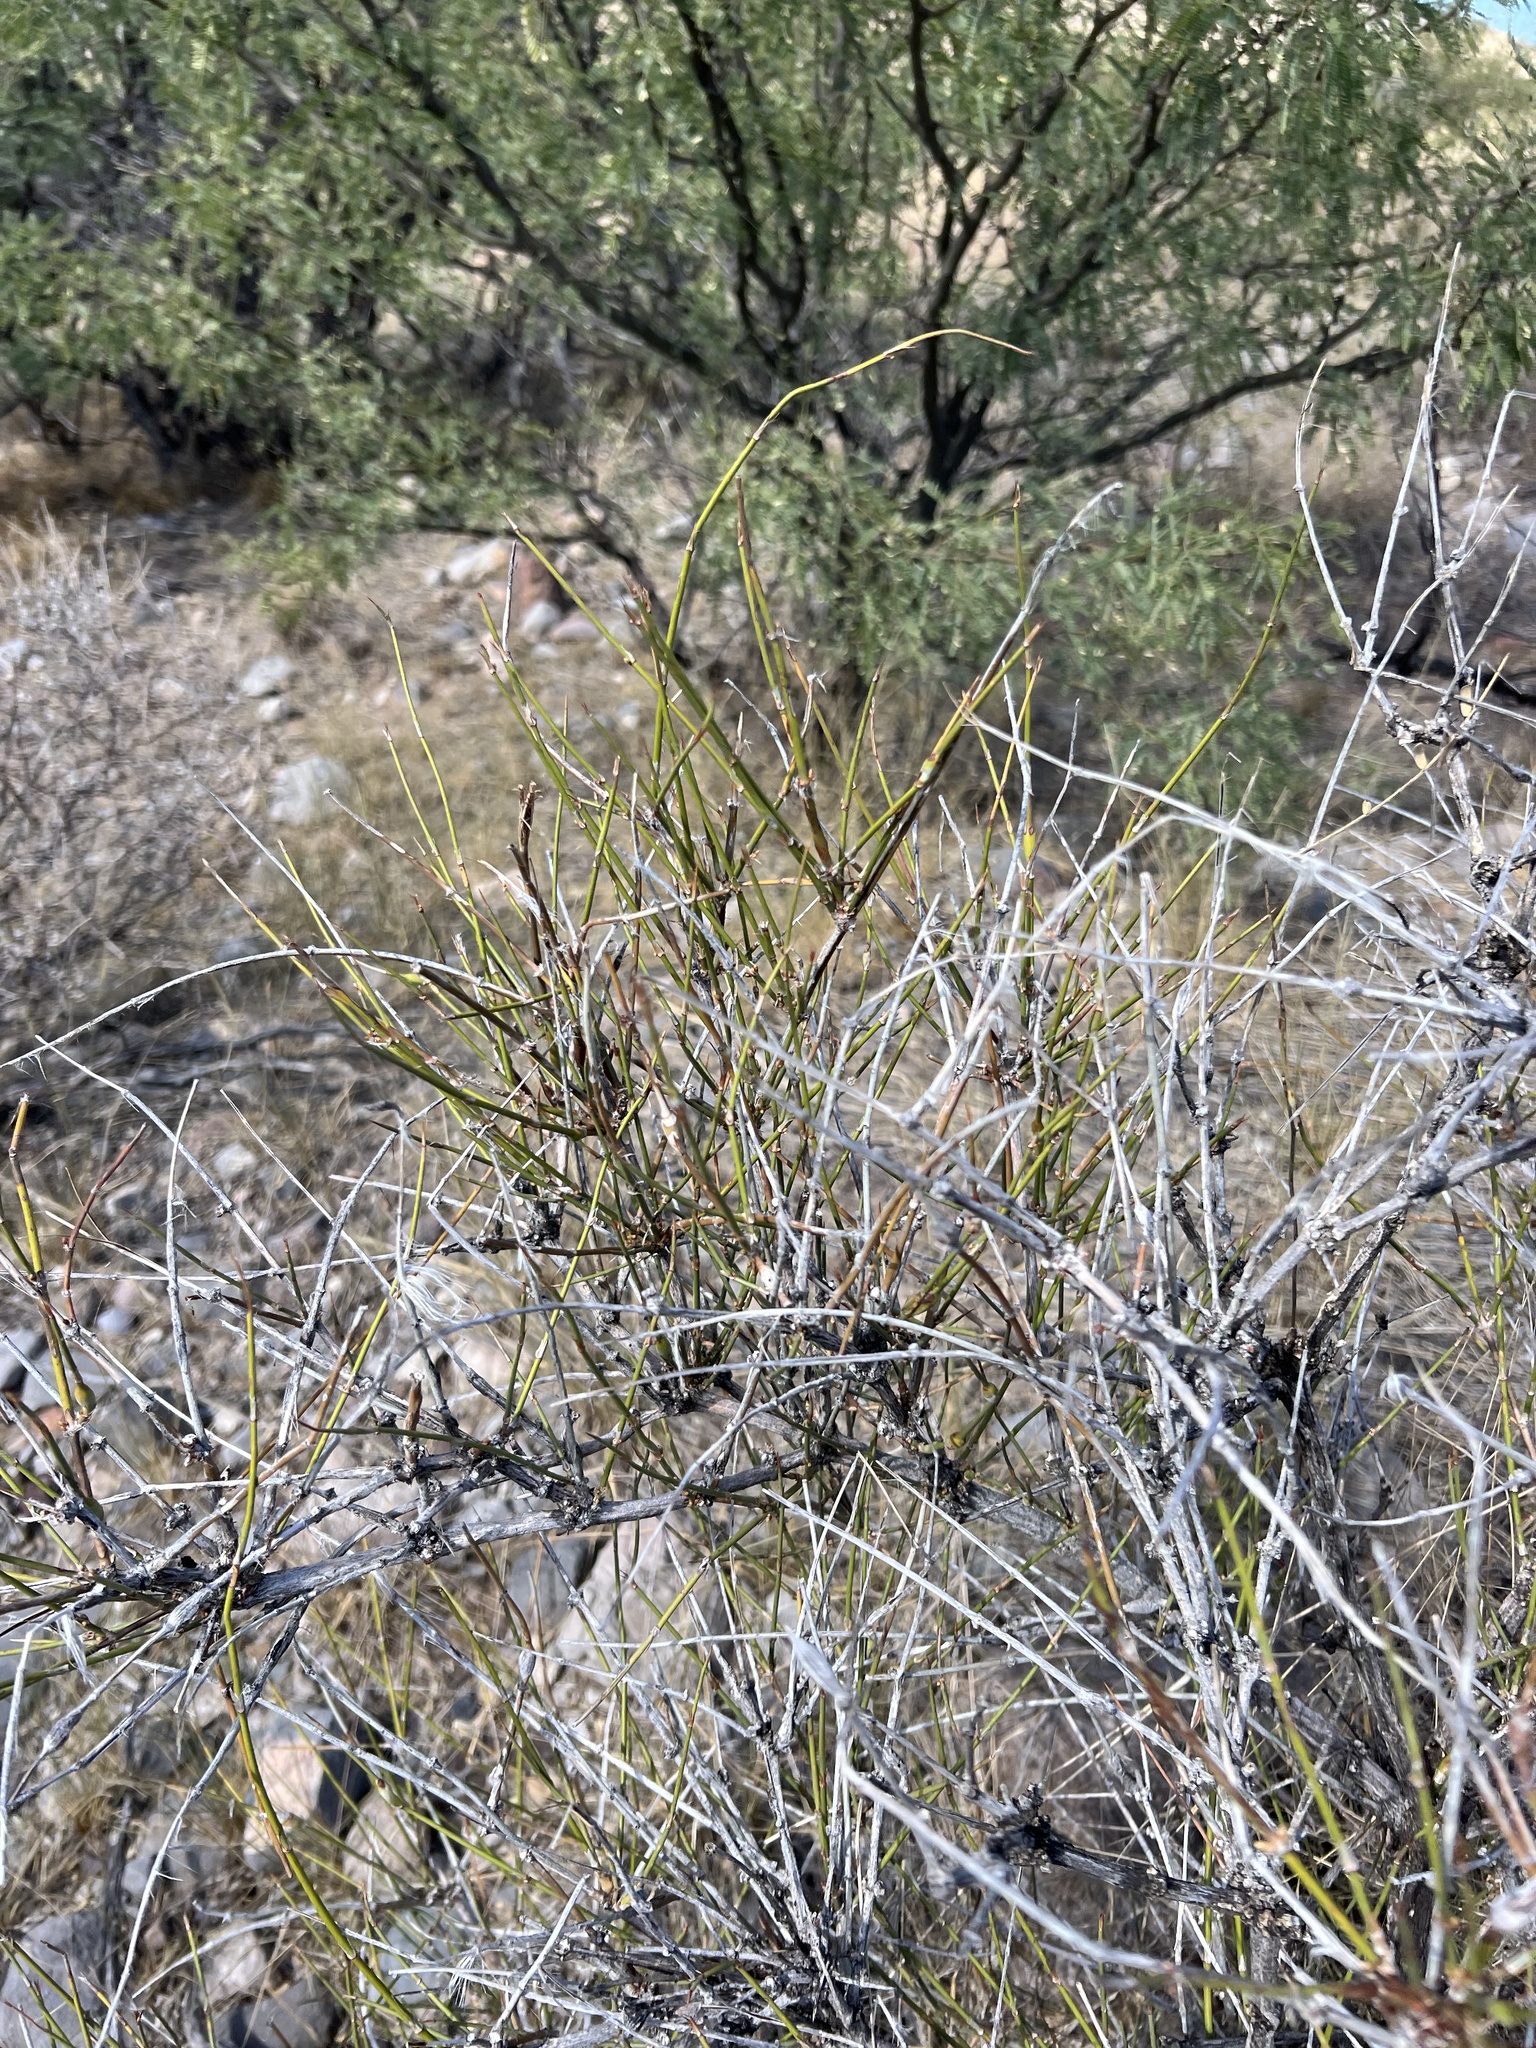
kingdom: Plantae
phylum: Tracheophyta
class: Gnetopsida
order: Ephedrales
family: Ephedraceae
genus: Ephedra
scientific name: Ephedra trifurca
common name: Mexican-tea
